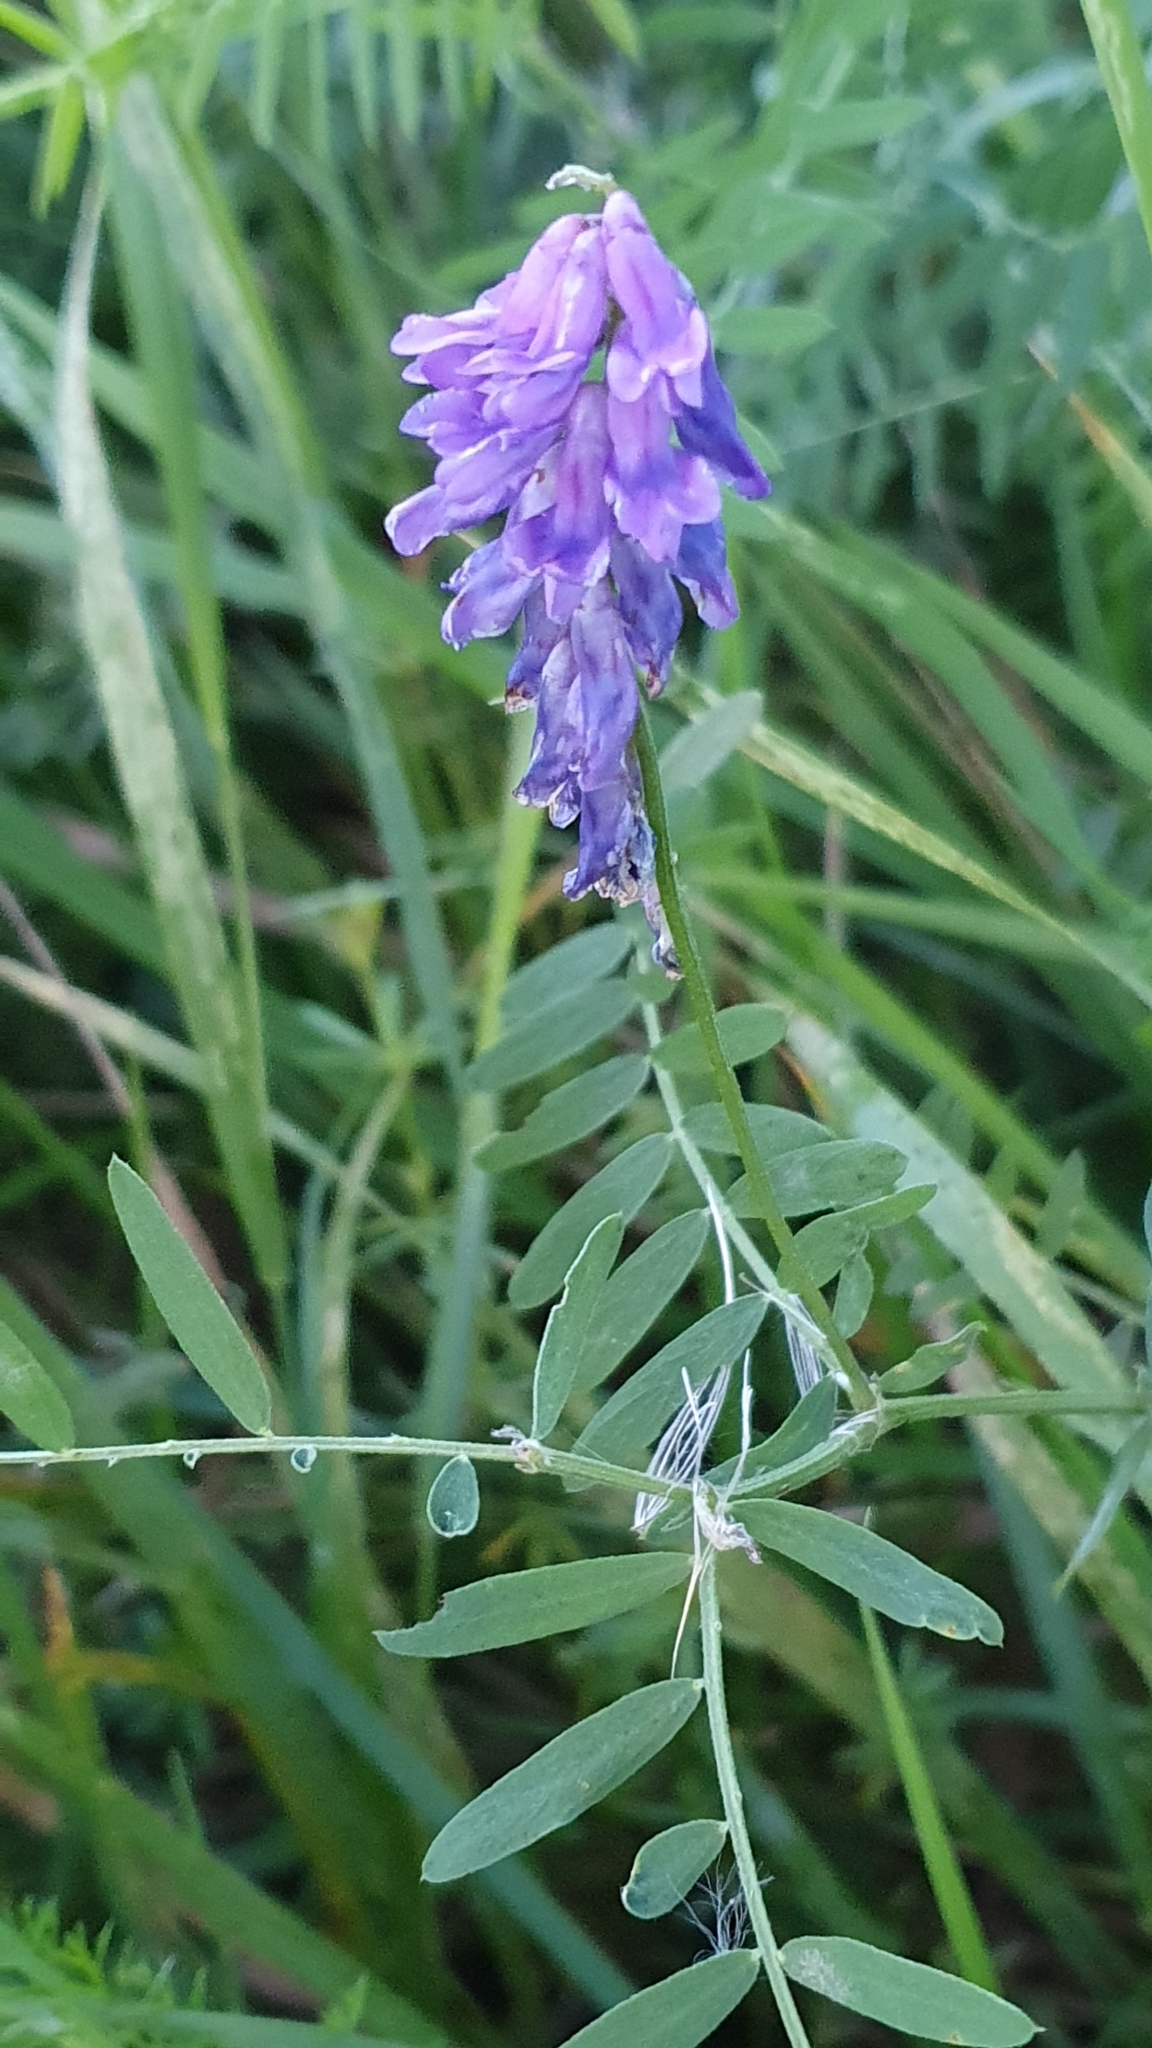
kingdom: Plantae
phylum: Tracheophyta
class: Magnoliopsida
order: Fabales
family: Fabaceae
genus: Vicia
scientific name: Vicia cracca
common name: Bird vetch
